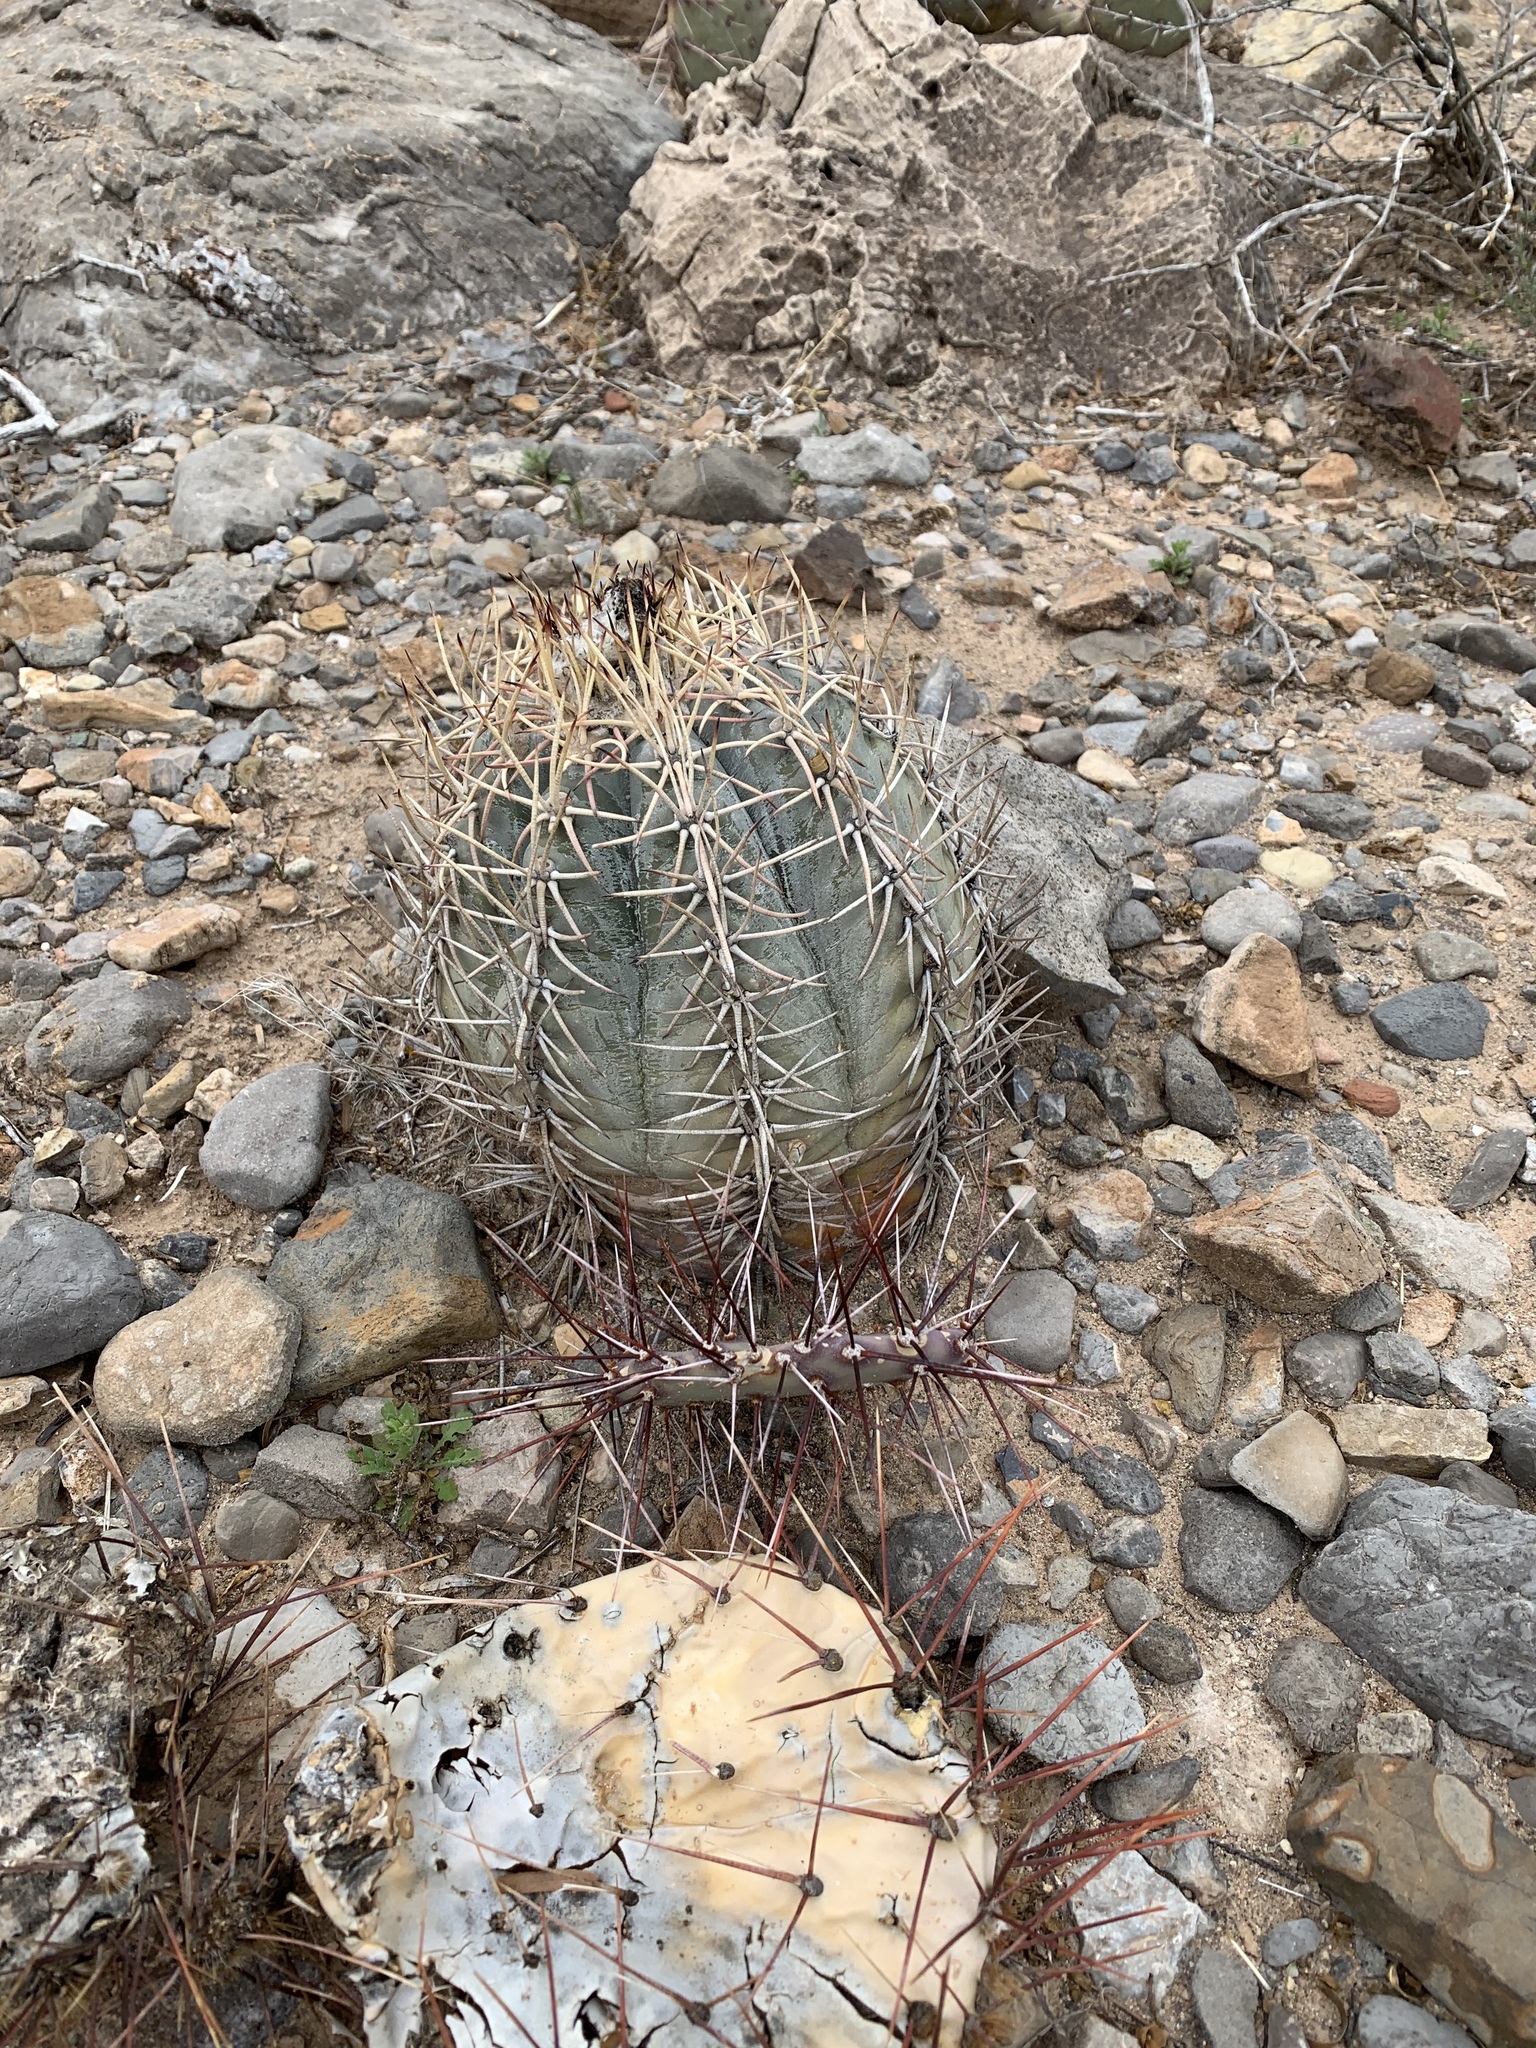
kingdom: Plantae
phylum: Tracheophyta
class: Magnoliopsida
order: Caryophyllales
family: Cactaceae
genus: Echinocactus
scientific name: Echinocactus horizonthalonius
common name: Devilshead
